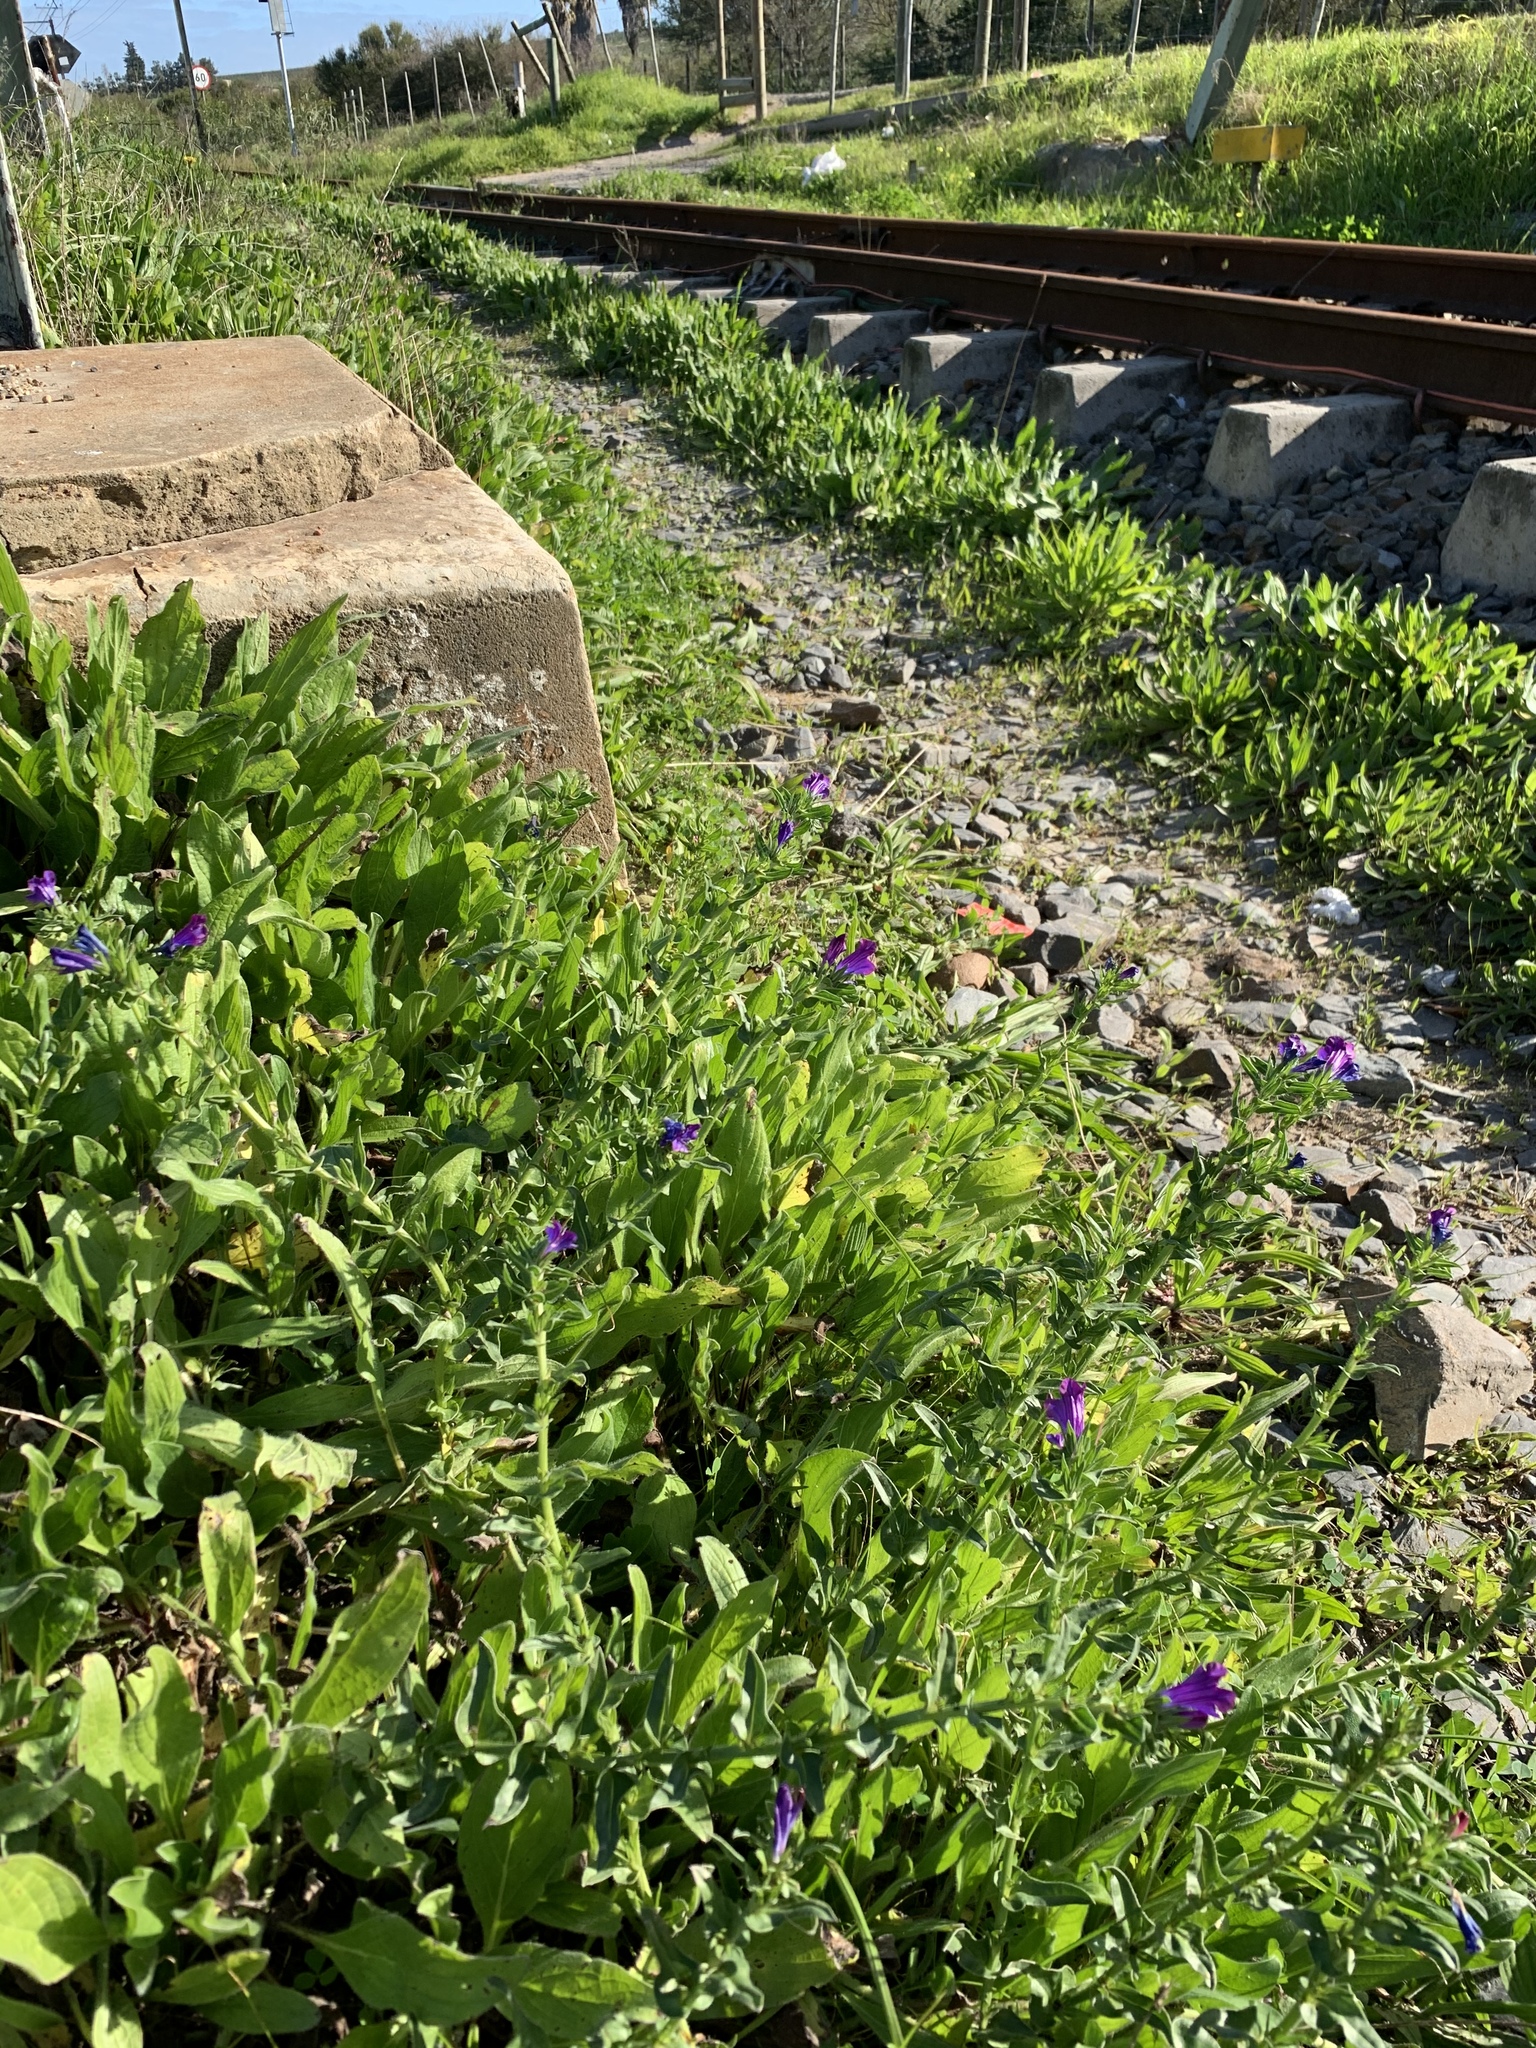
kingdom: Plantae
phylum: Tracheophyta
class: Magnoliopsida
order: Boraginales
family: Boraginaceae
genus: Echium
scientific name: Echium plantagineum
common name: Purple viper's-bugloss
